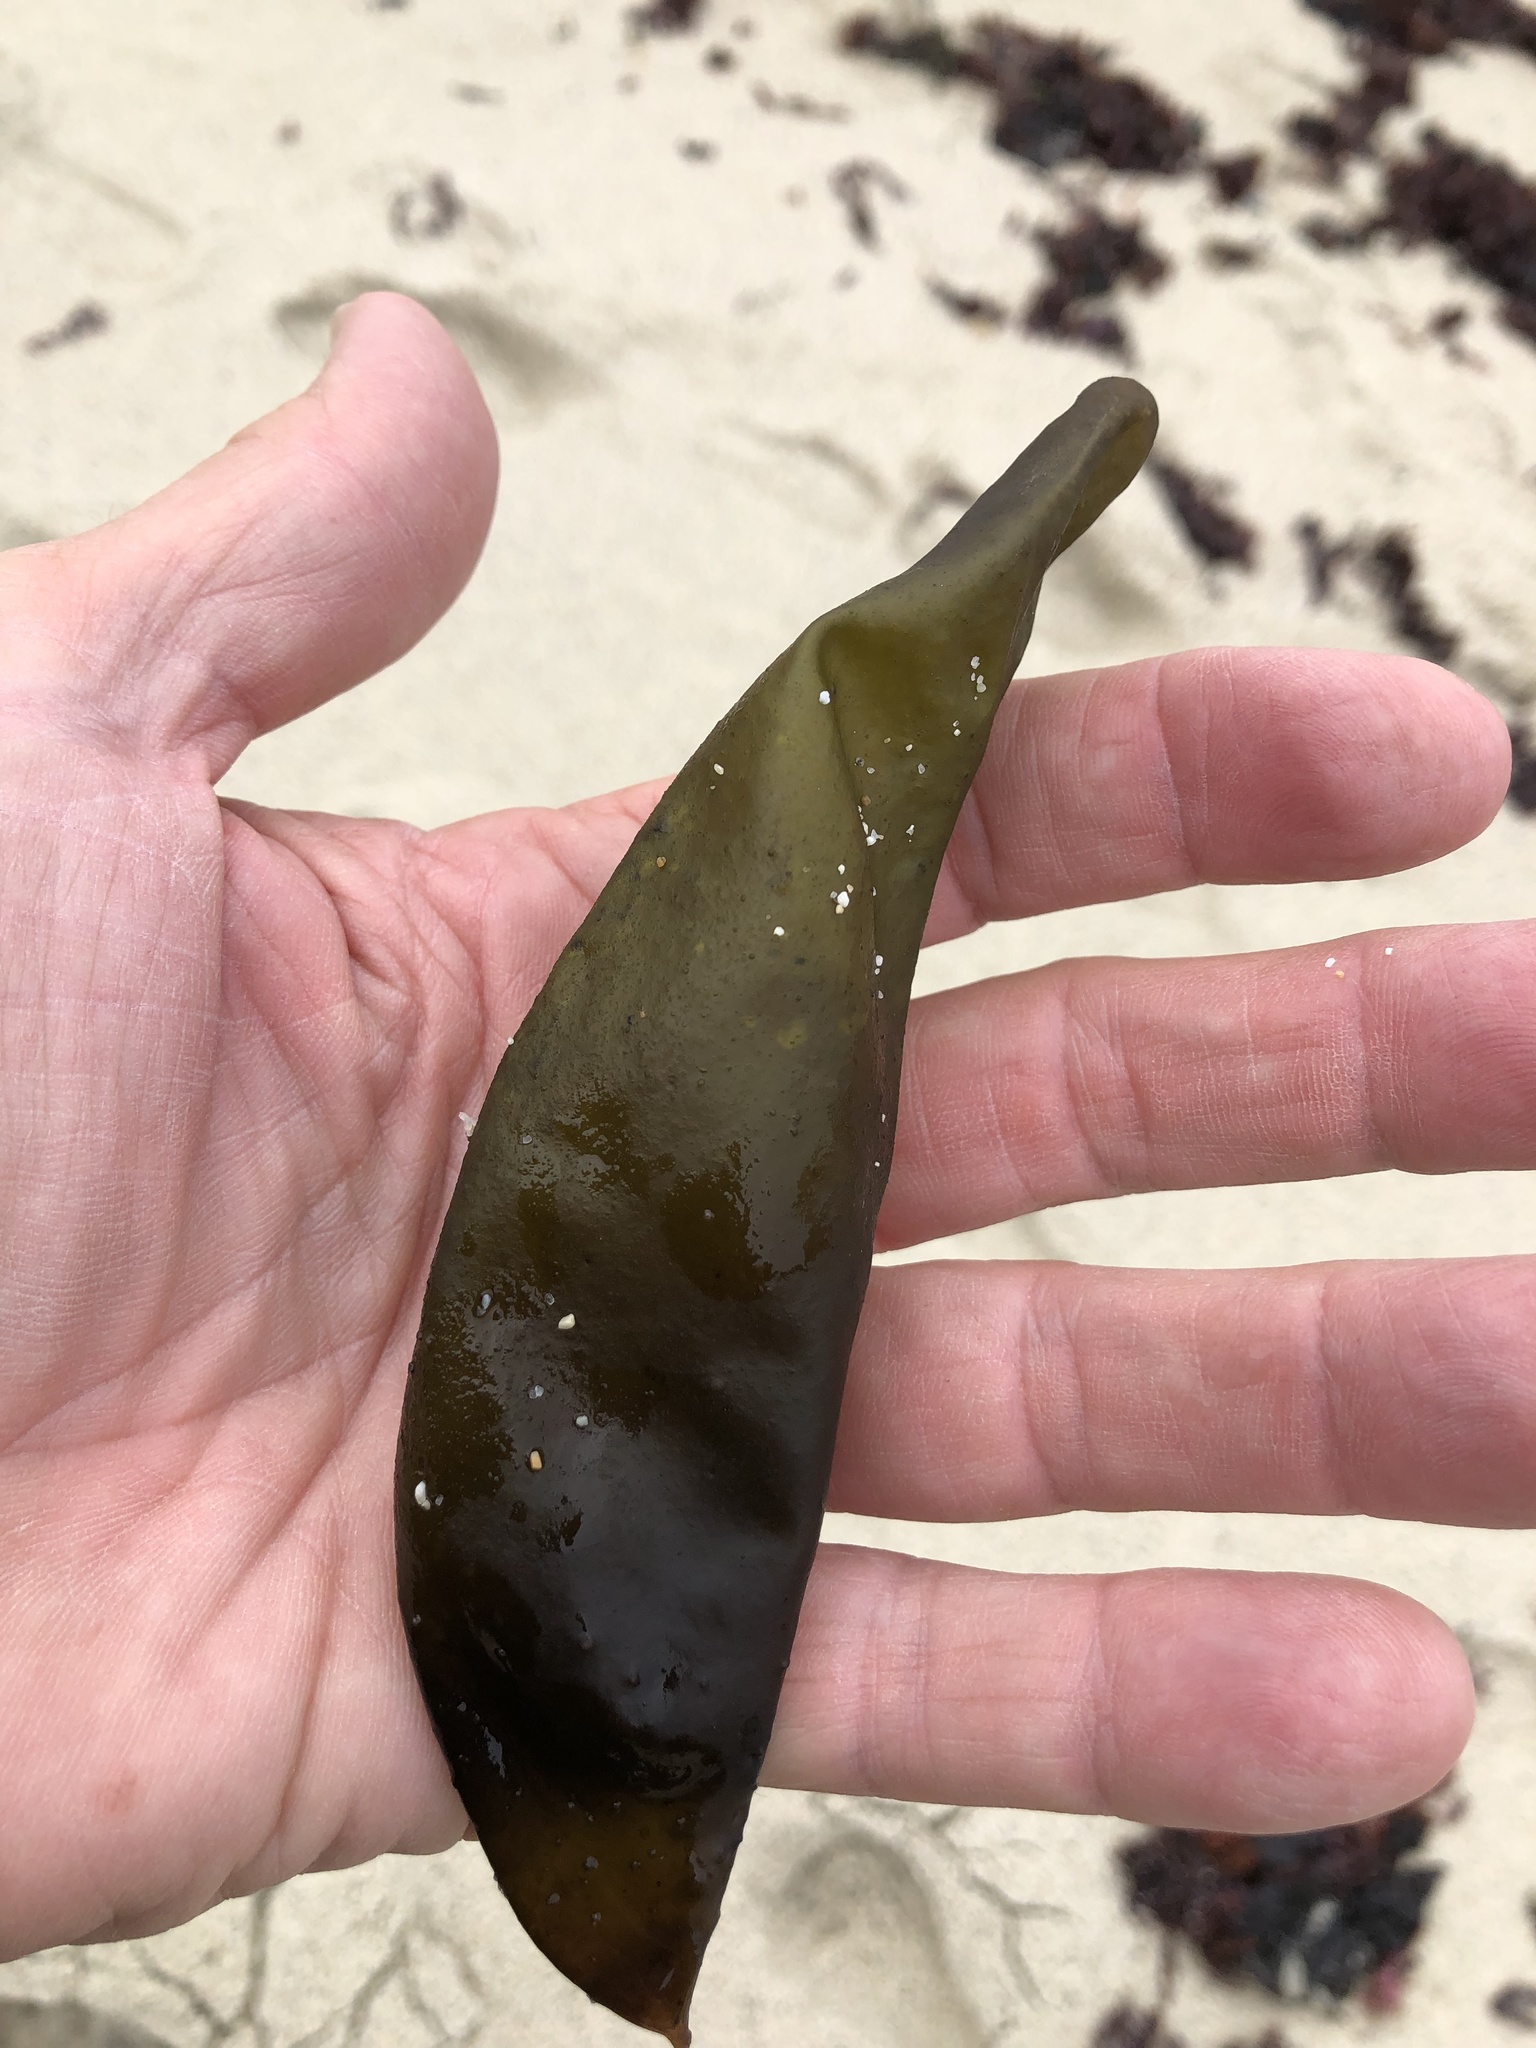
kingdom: Plantae
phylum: Rhodophyta
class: Florideophyceae
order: Palmariales
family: Palmariaceae
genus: Halosaccion
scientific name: Halosaccion glandiforme
